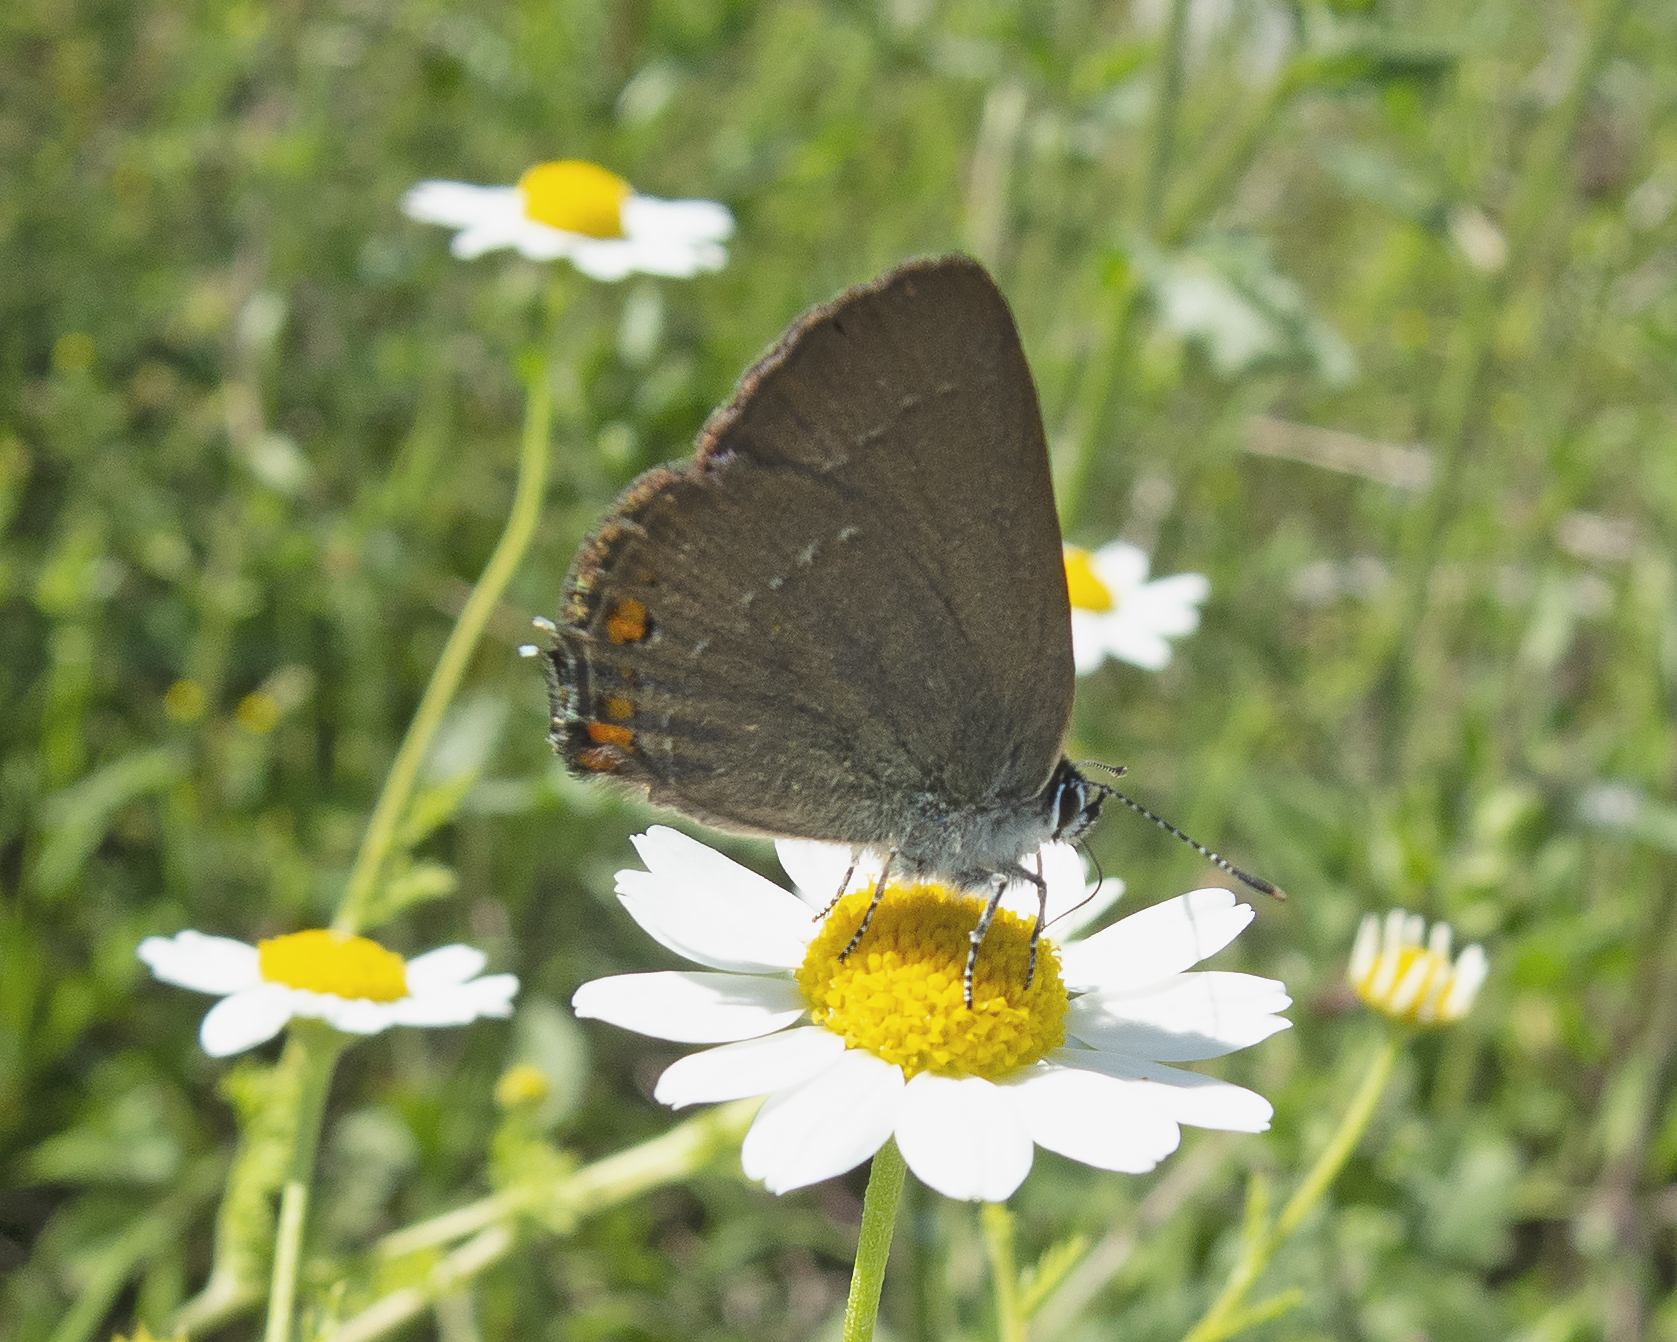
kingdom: Animalia
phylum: Arthropoda
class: Insecta
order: Lepidoptera
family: Lycaenidae
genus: Strymon
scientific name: Strymon acaciae
